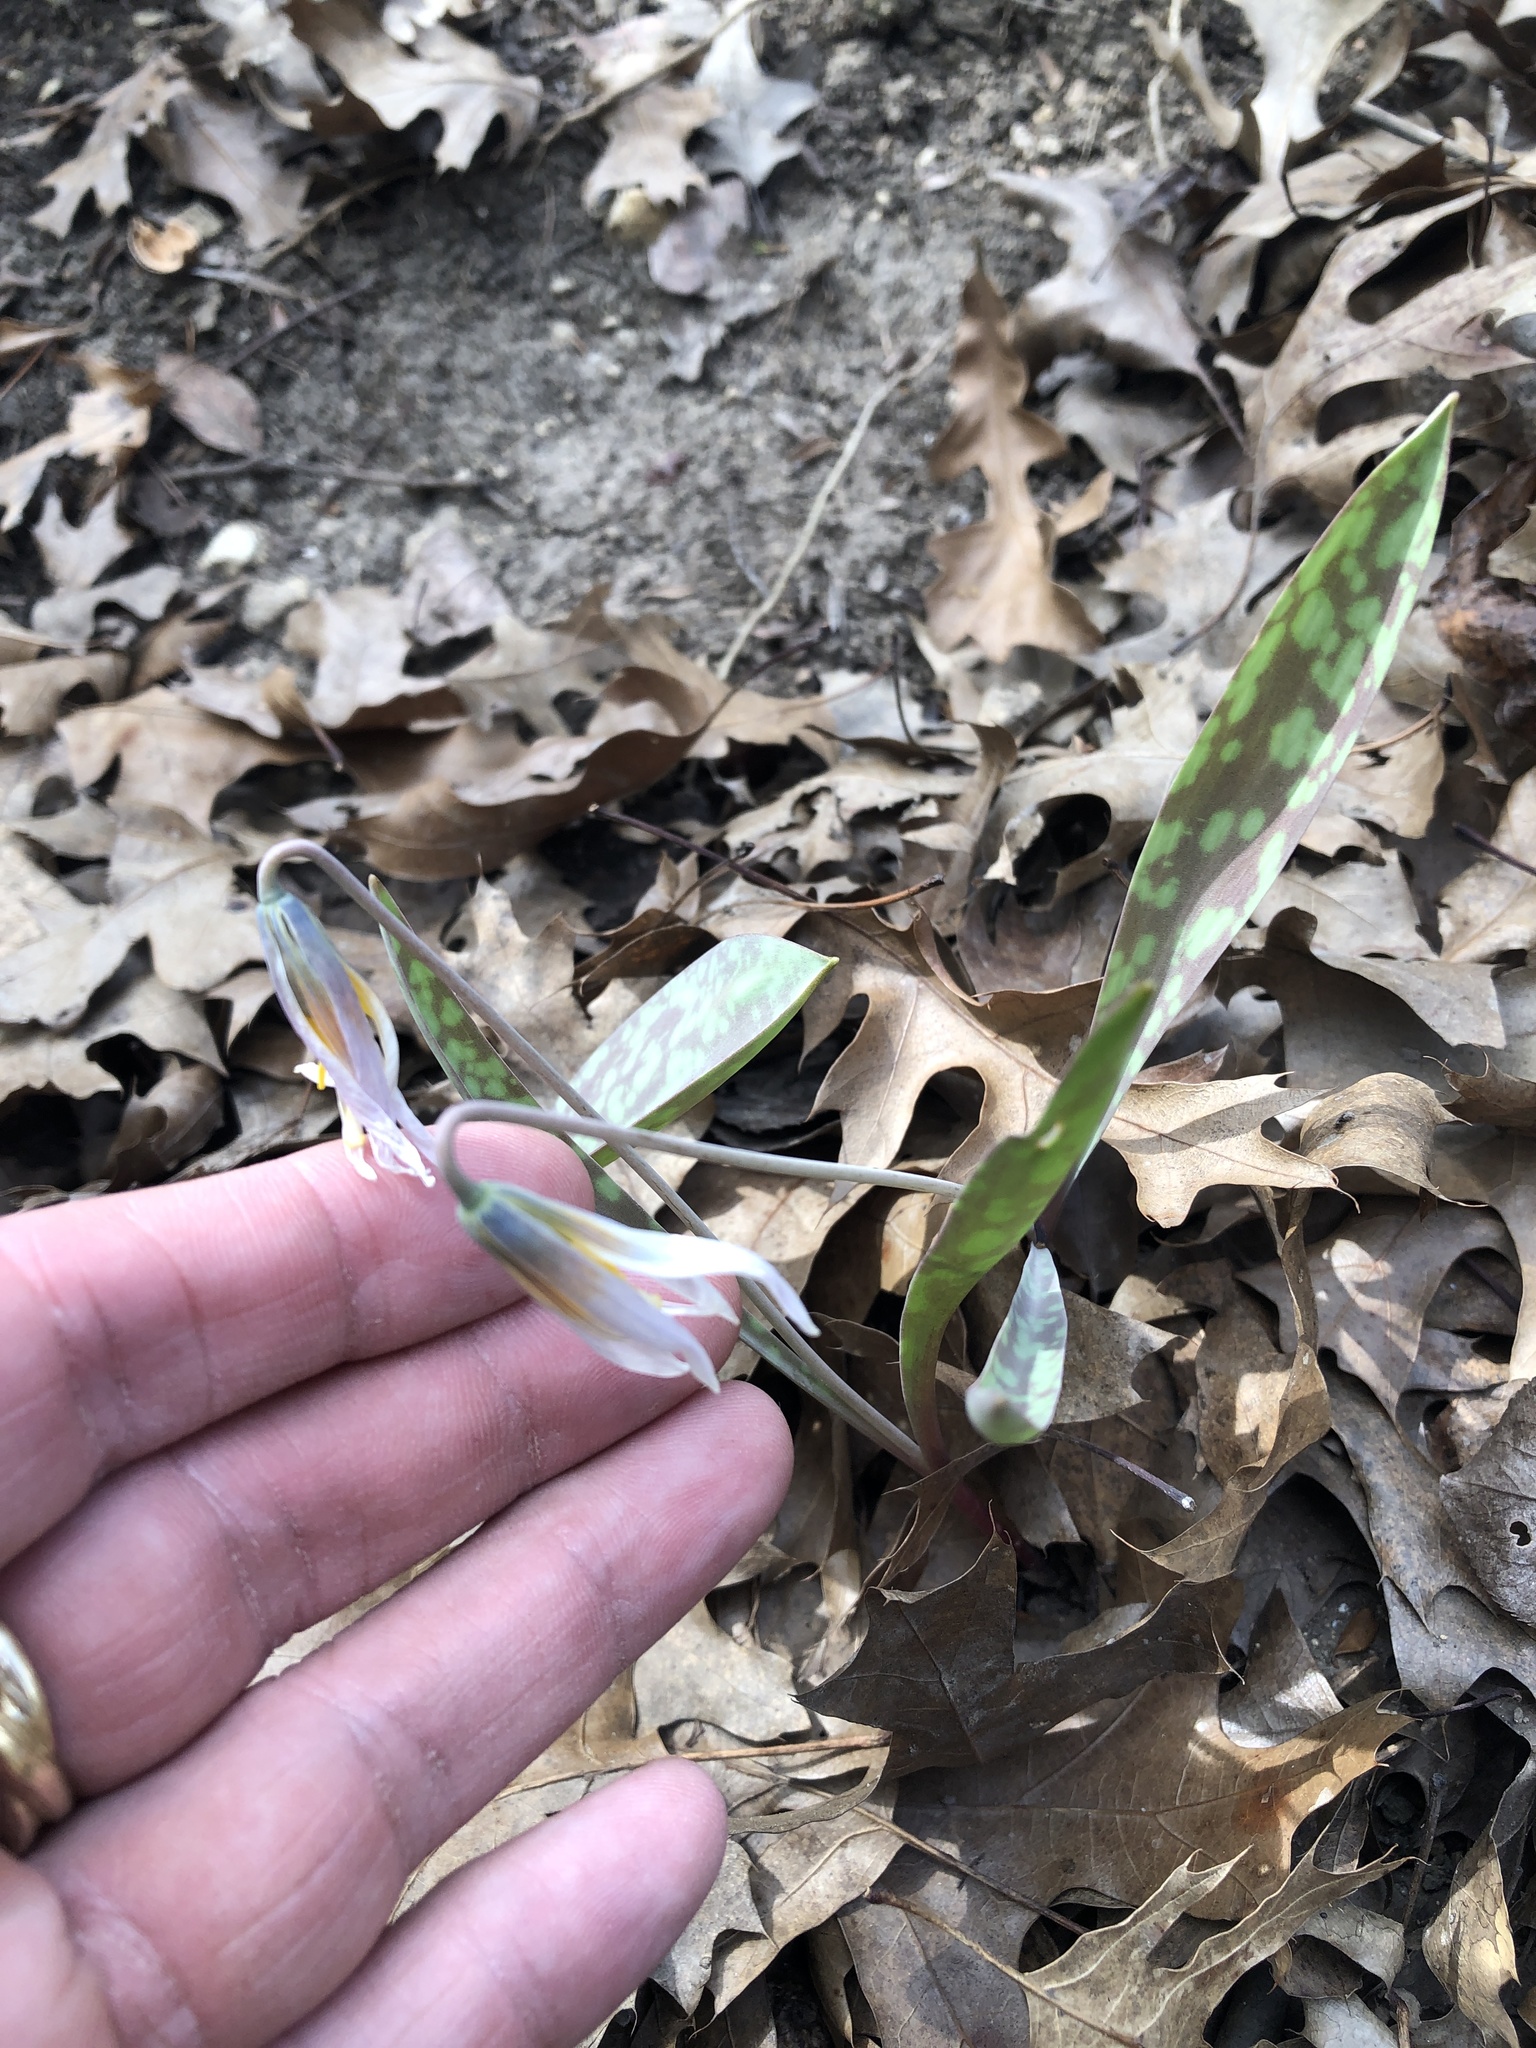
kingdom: Plantae
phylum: Tracheophyta
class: Liliopsida
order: Liliales
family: Liliaceae
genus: Erythronium
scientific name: Erythronium albidum
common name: White trout-lily
